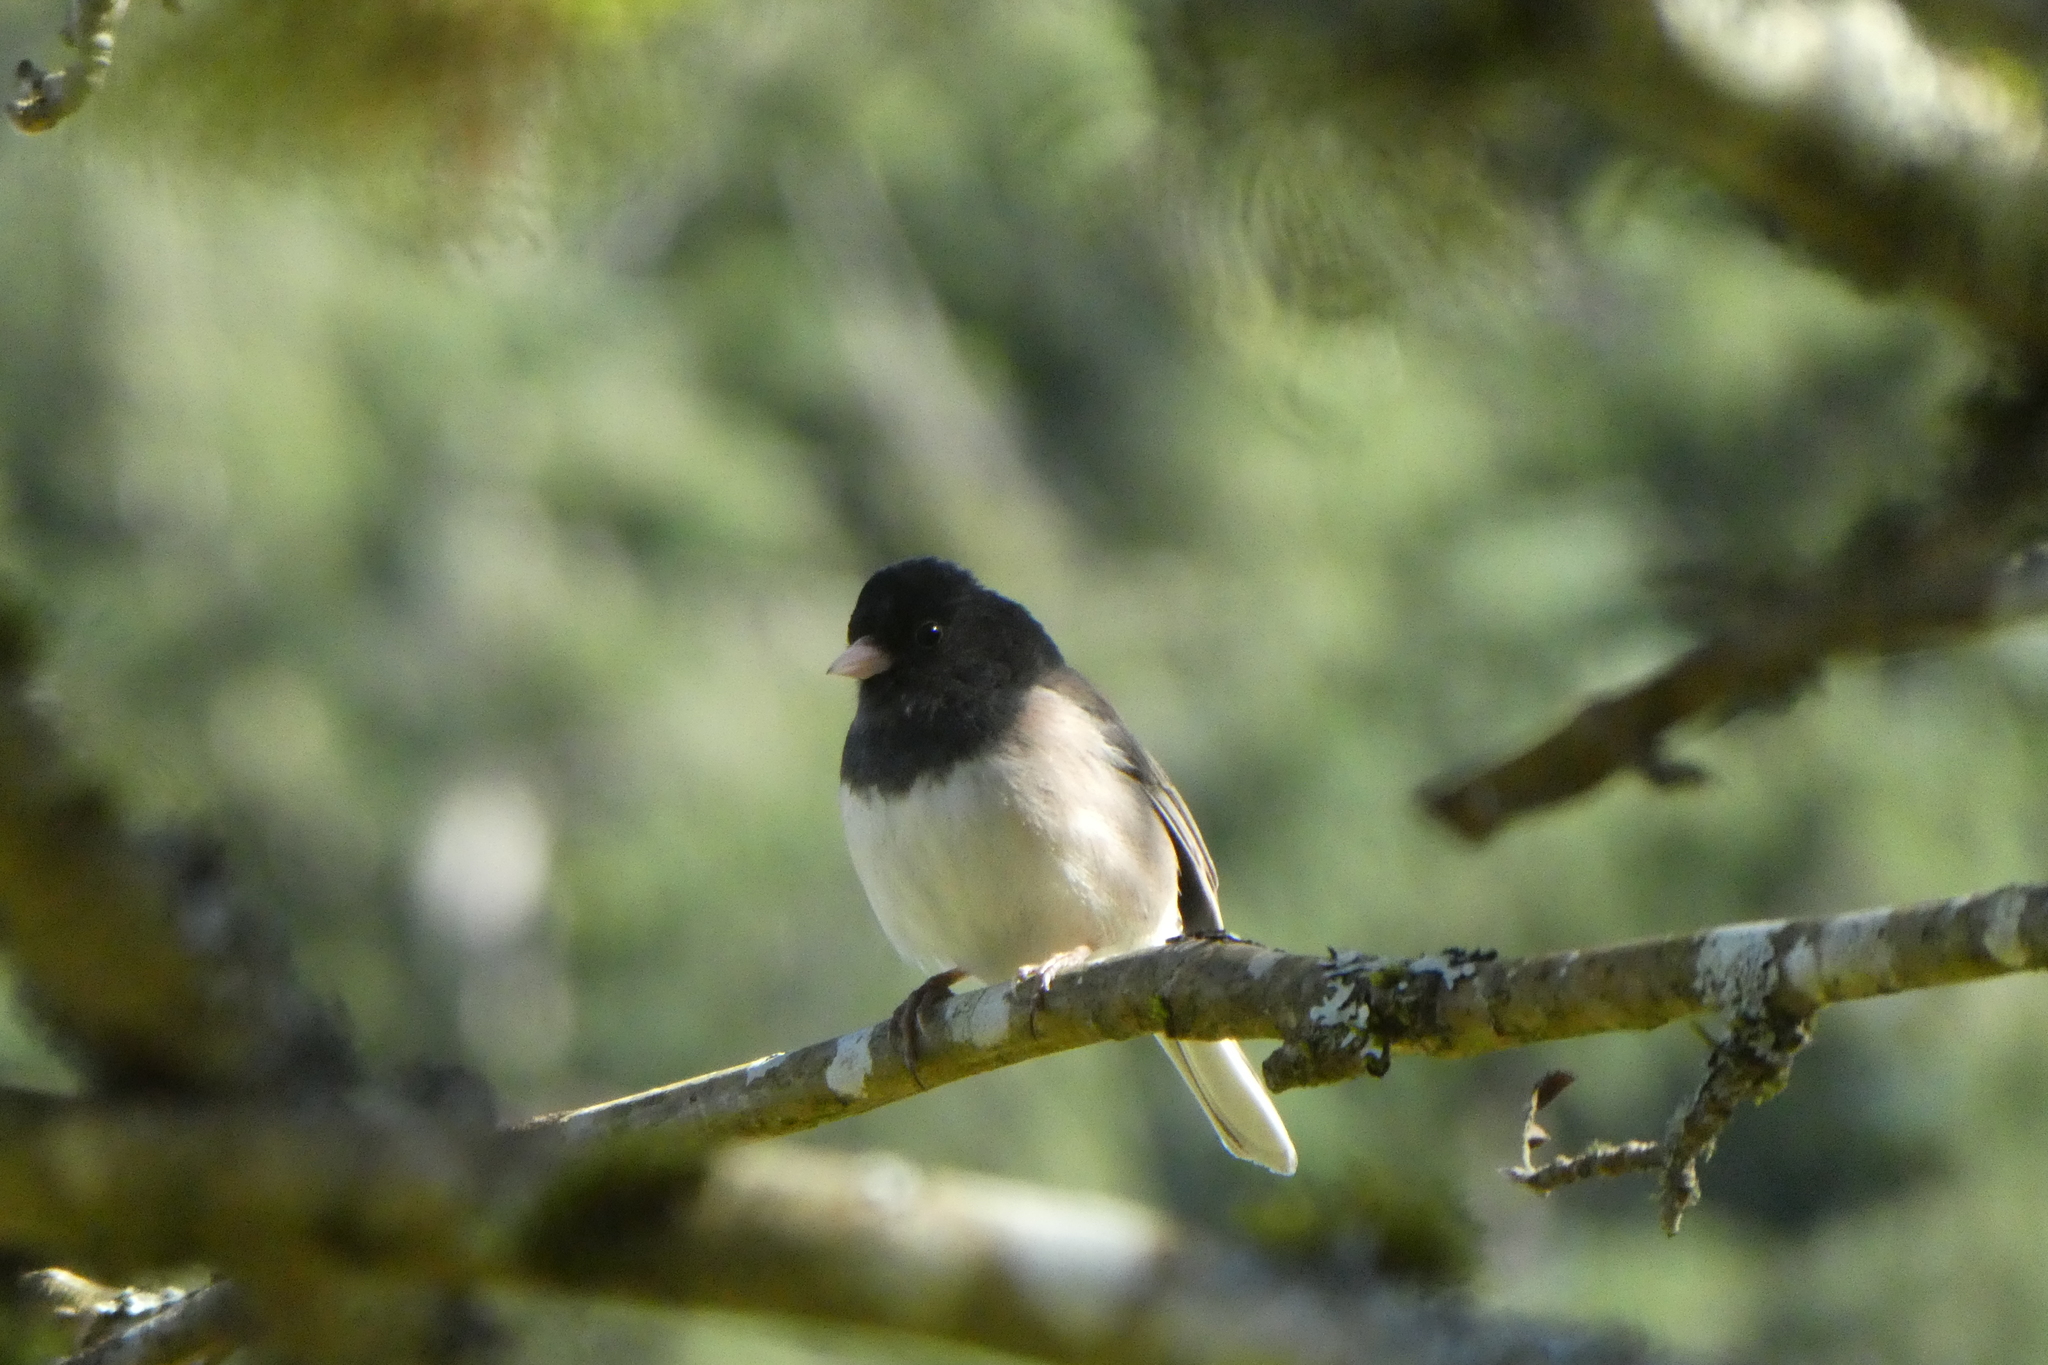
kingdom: Animalia
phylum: Chordata
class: Aves
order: Passeriformes
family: Passerellidae
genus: Junco
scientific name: Junco hyemalis
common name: Dark-eyed junco
